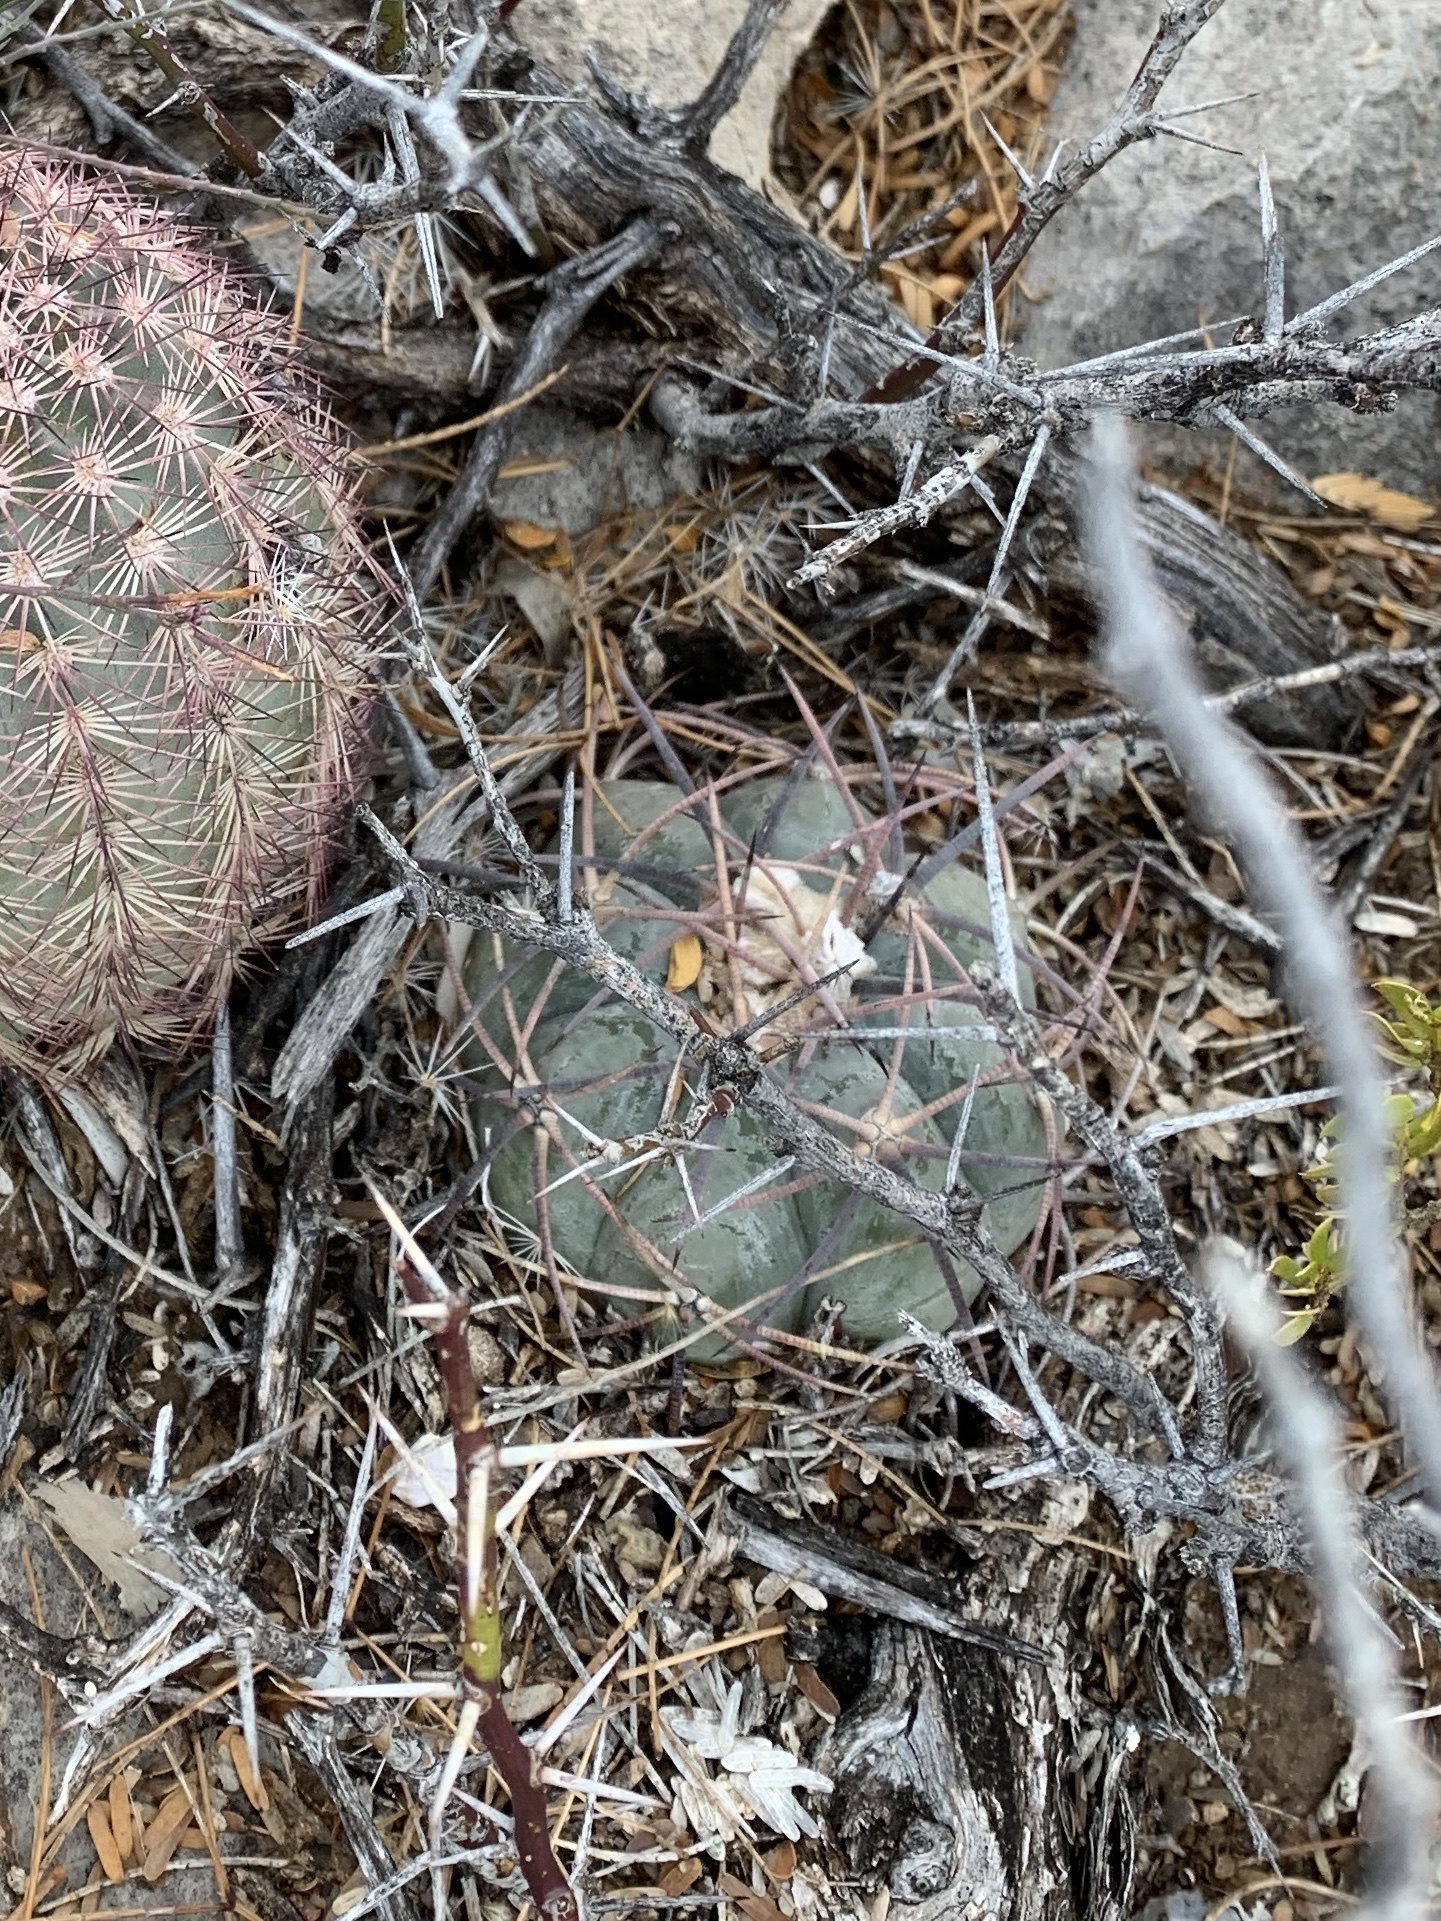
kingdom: Plantae
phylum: Tracheophyta
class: Magnoliopsida
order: Caryophyllales
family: Cactaceae
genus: Echinocactus
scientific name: Echinocactus horizonthalonius
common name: Devilshead
